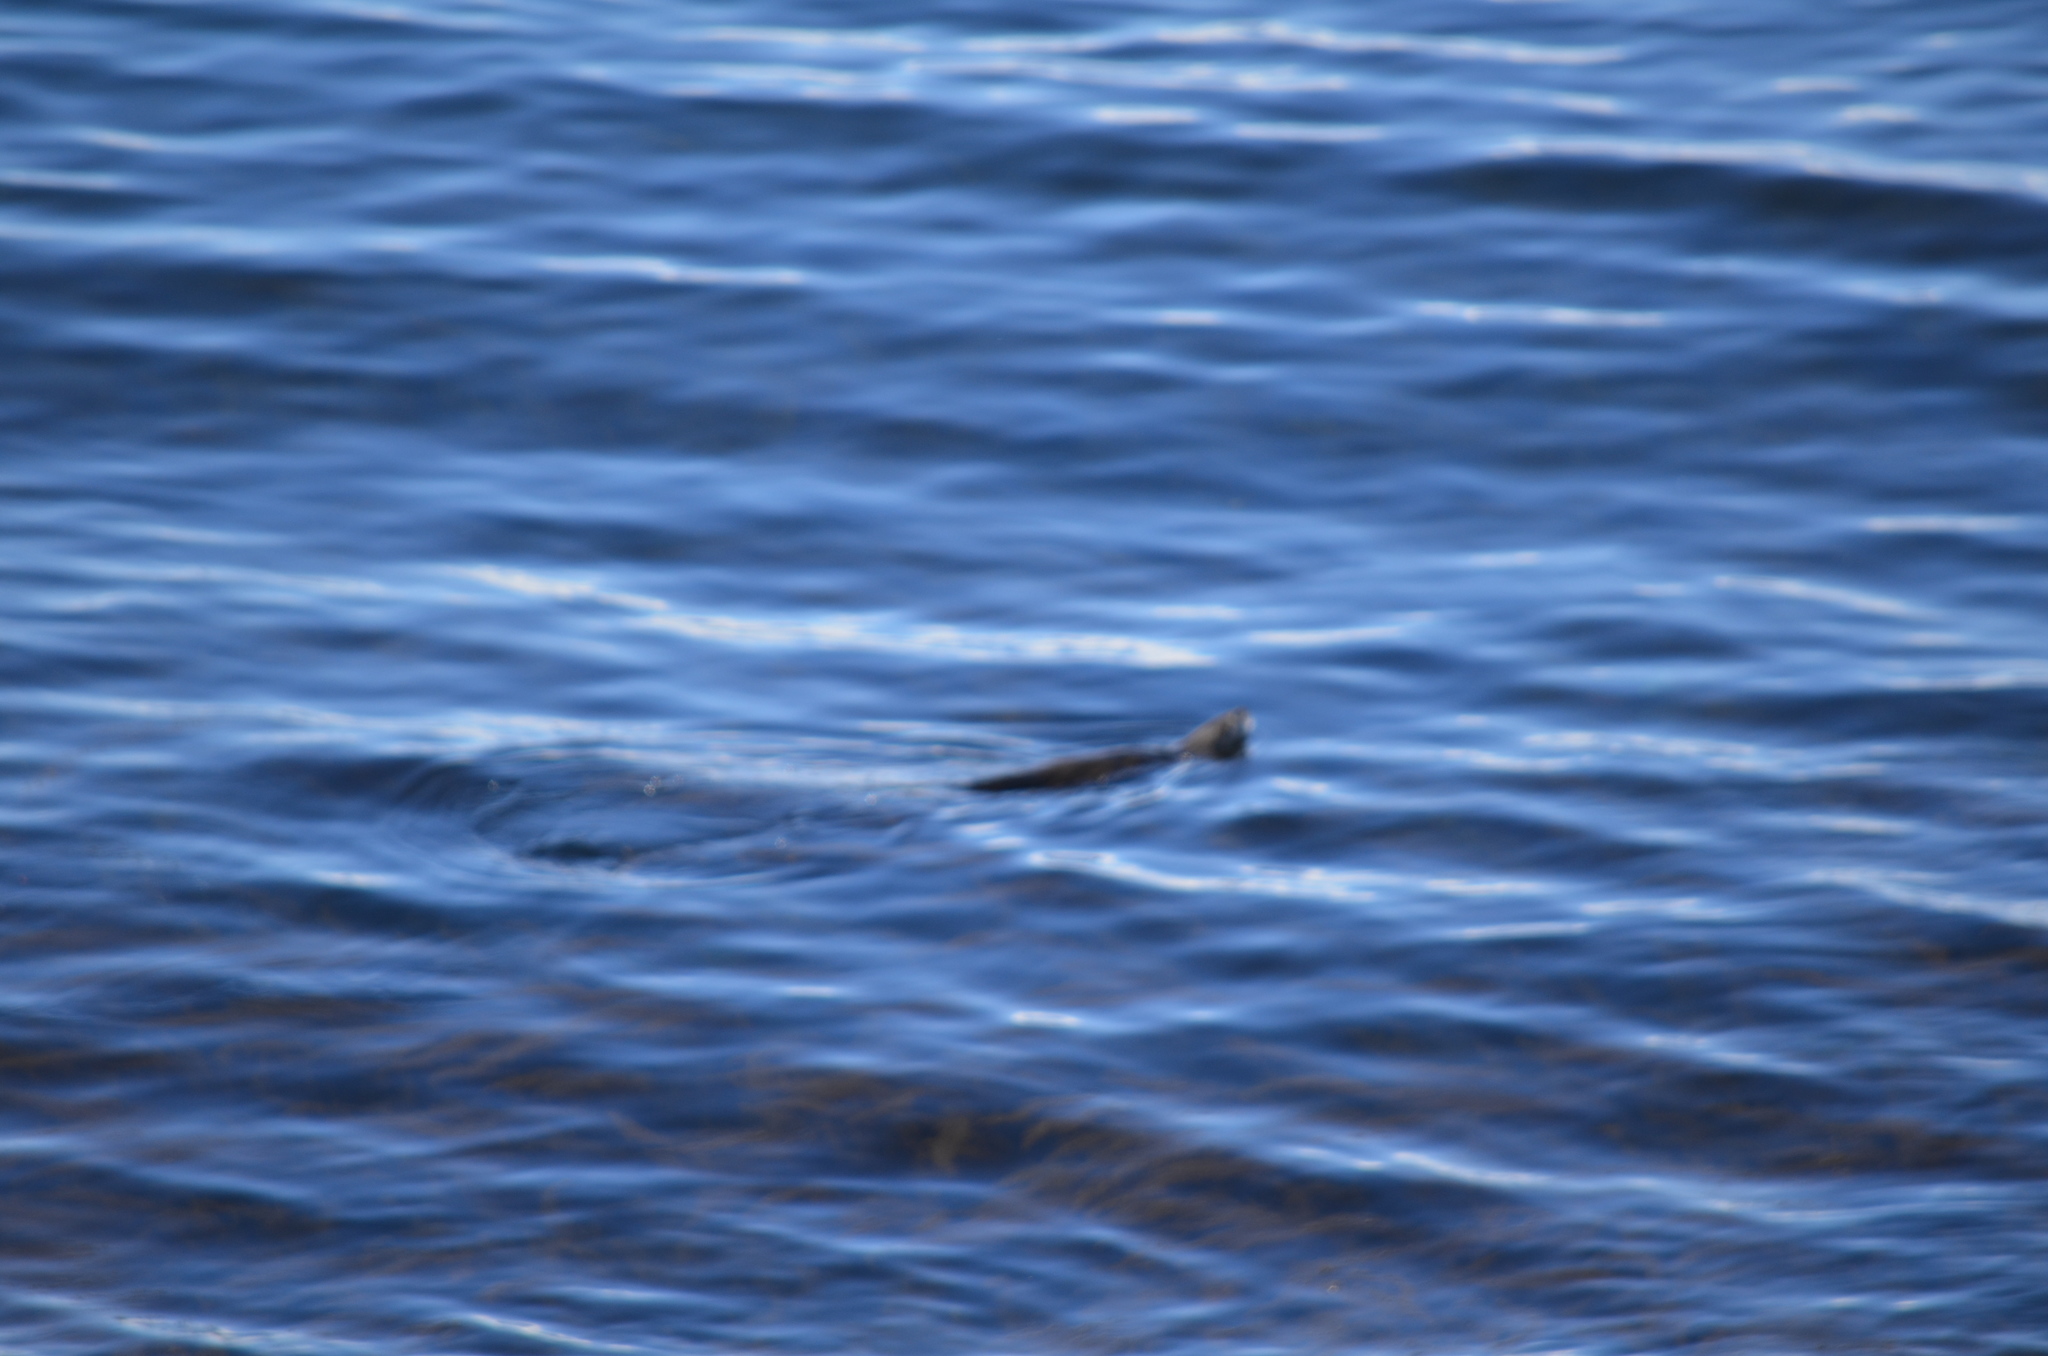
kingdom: Animalia
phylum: Chordata
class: Mammalia
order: Carnivora
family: Mustelidae
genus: Lontra
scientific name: Lontra canadensis
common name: North american river otter
